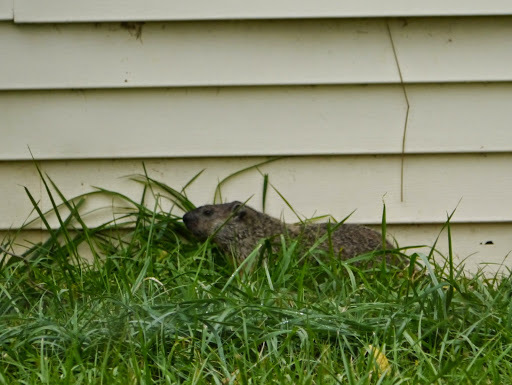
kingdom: Animalia
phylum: Chordata
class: Mammalia
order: Rodentia
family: Sciuridae
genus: Marmota
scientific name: Marmota monax
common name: Groundhog
